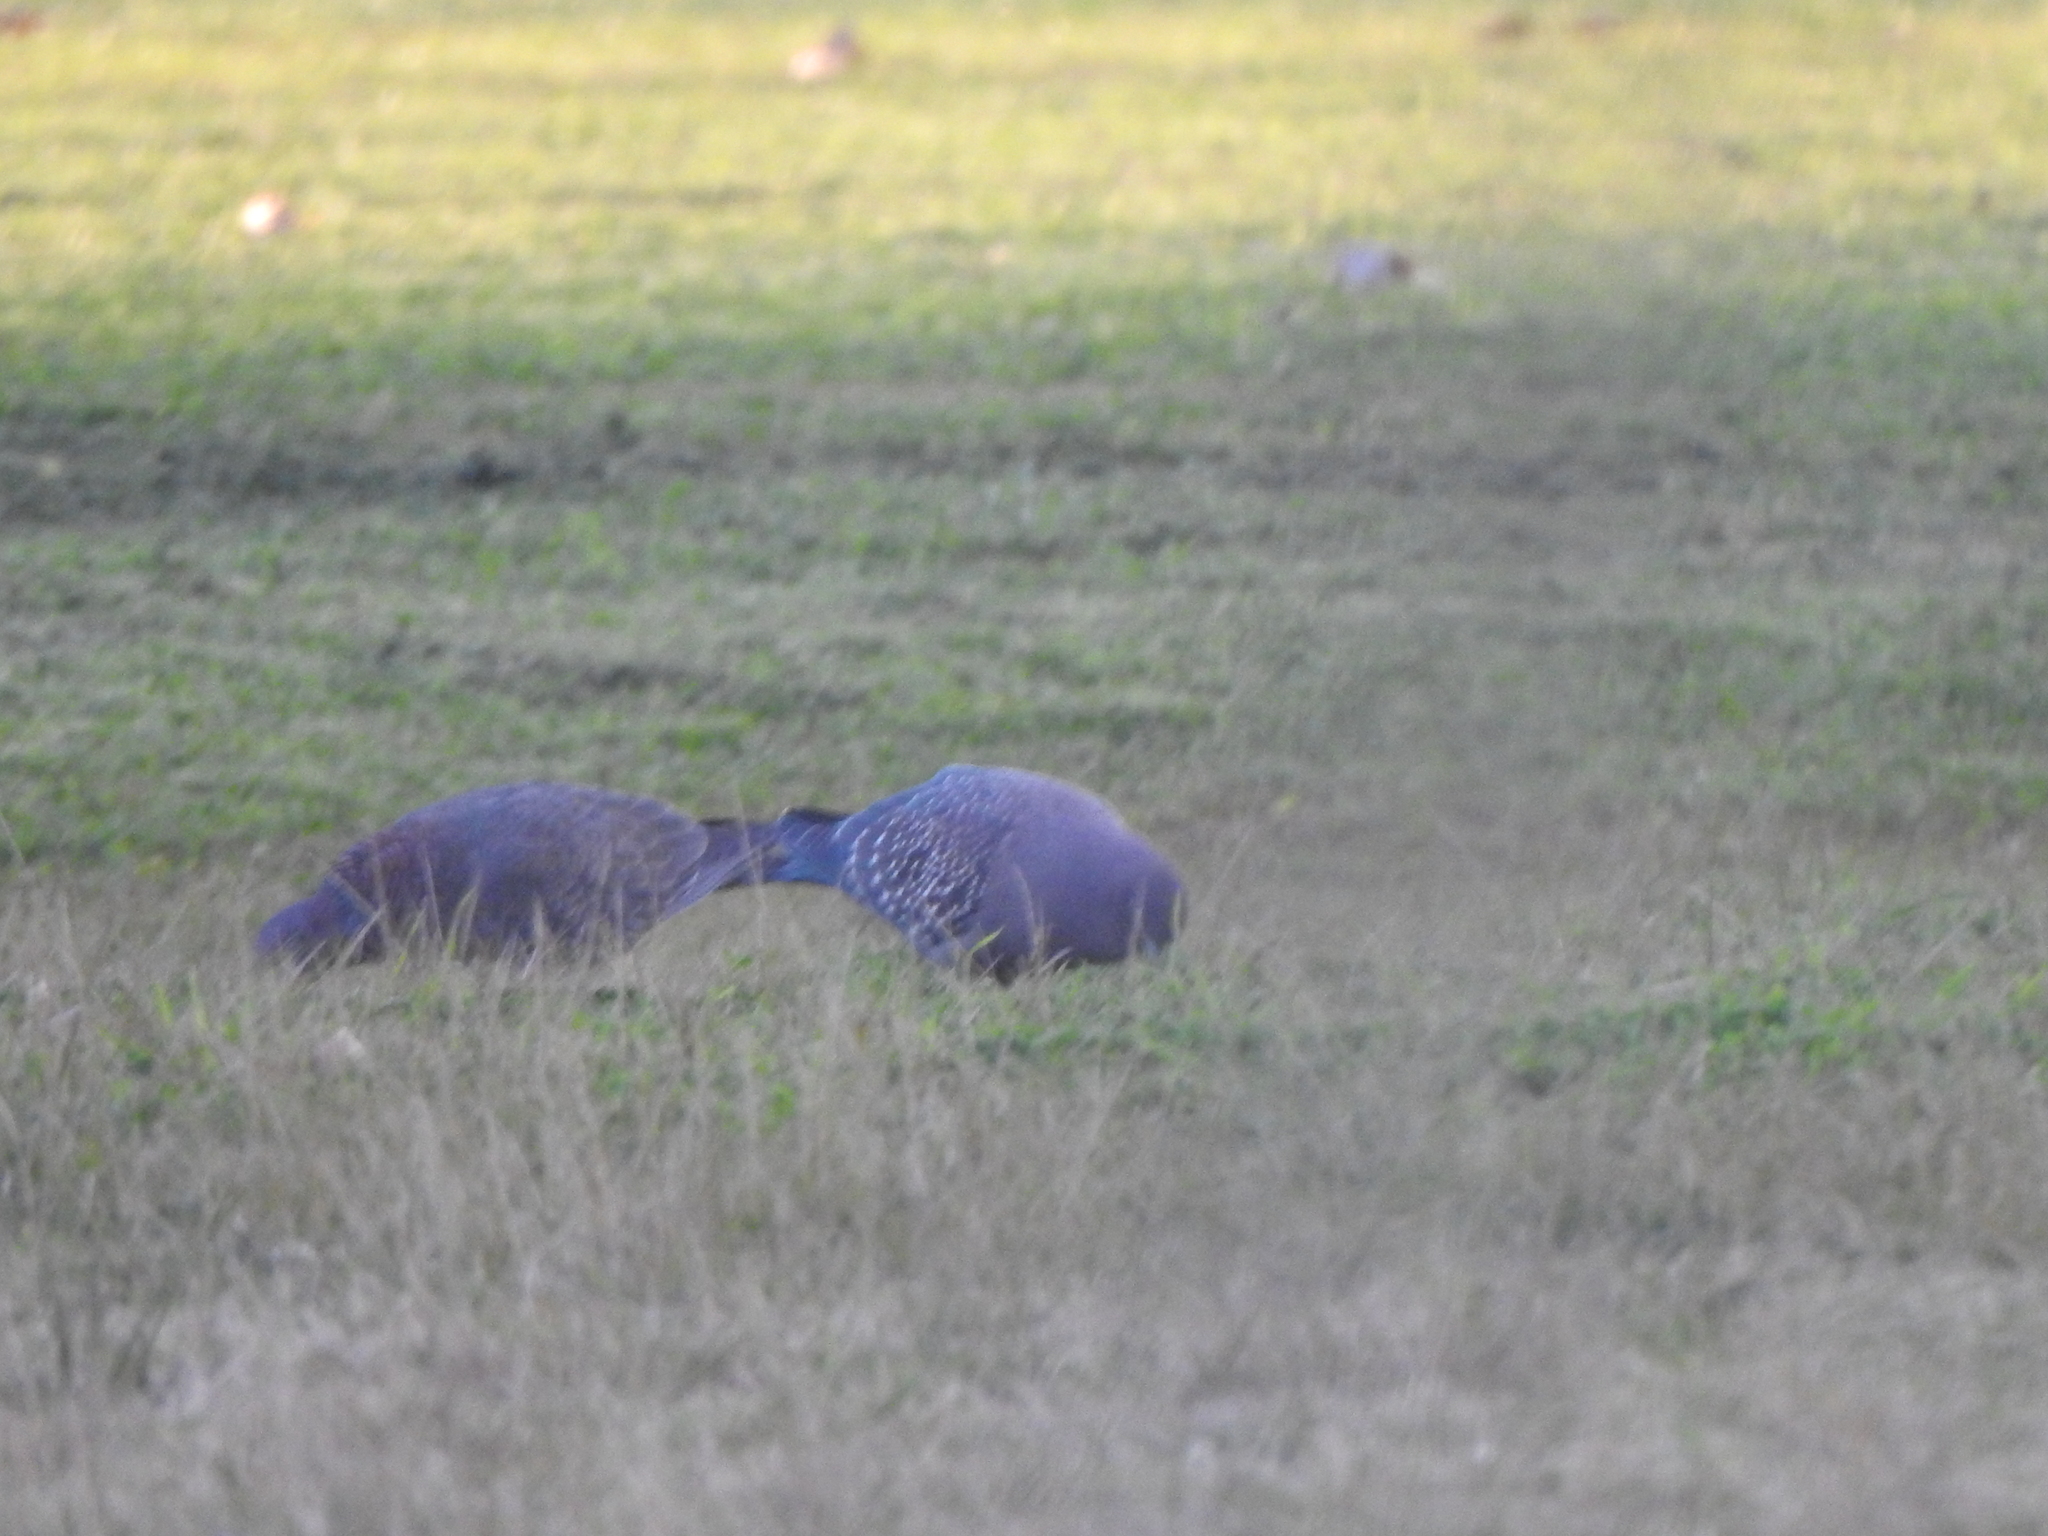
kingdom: Animalia
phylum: Chordata
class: Aves
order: Columbiformes
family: Columbidae
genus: Patagioenas
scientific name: Patagioenas maculosa
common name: Spot-winged pigeon
